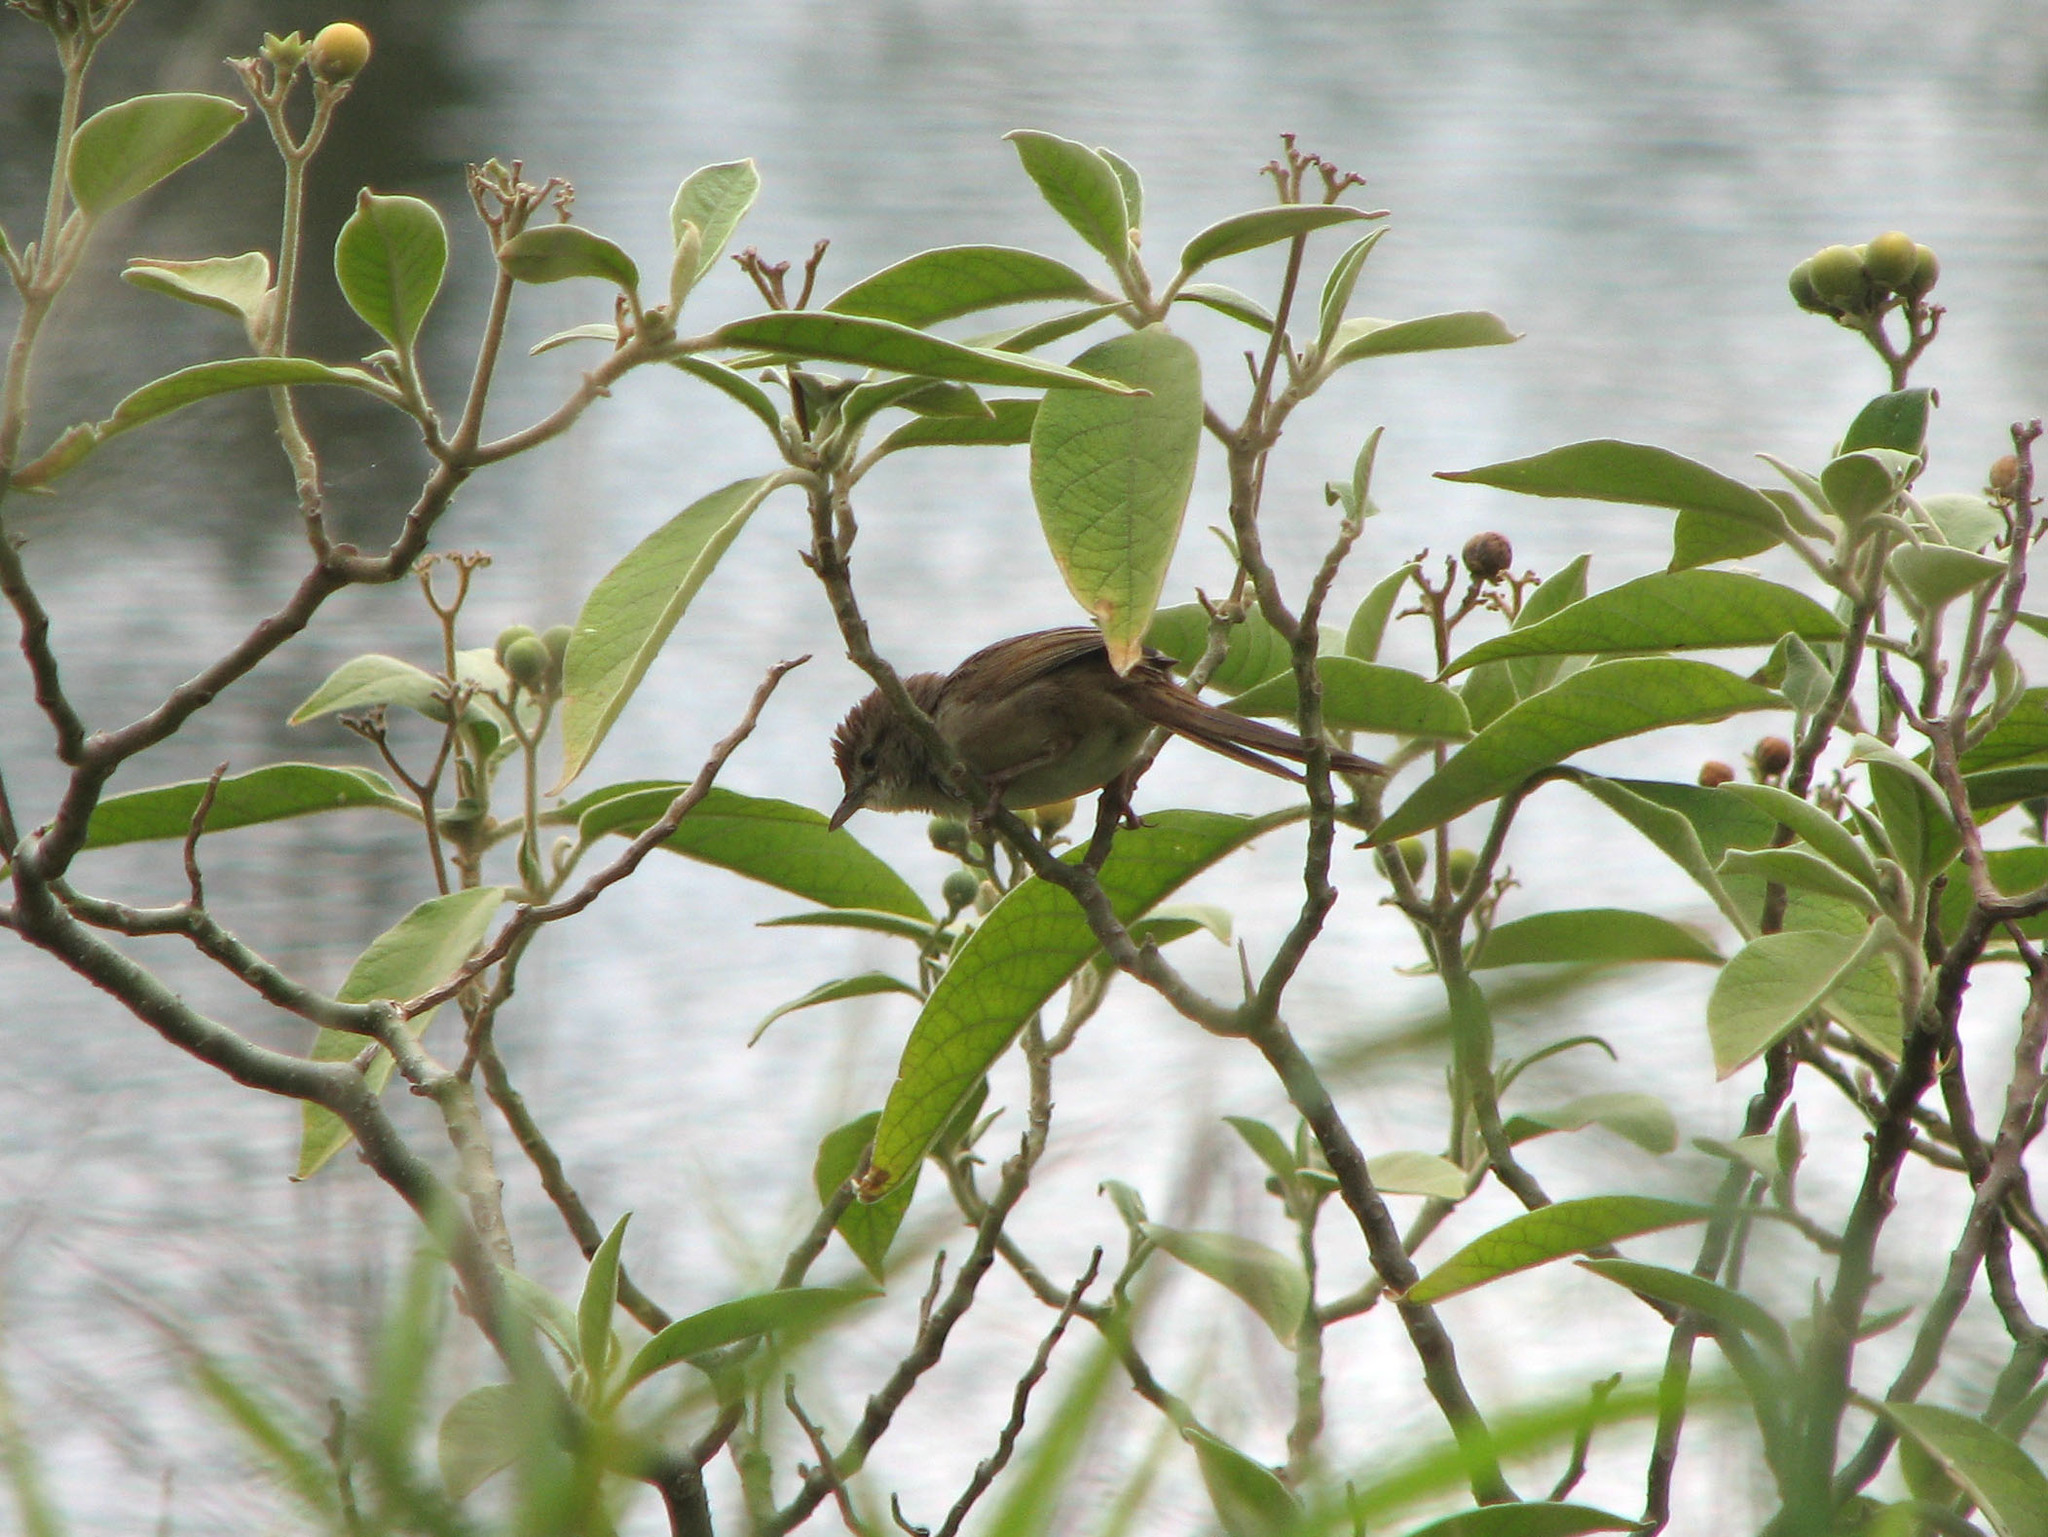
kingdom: Animalia
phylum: Chordata
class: Aves
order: Passeriformes
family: Acrocephalidae
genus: Acrocephalus
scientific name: Acrocephalus australis
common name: Australian reed warbler
